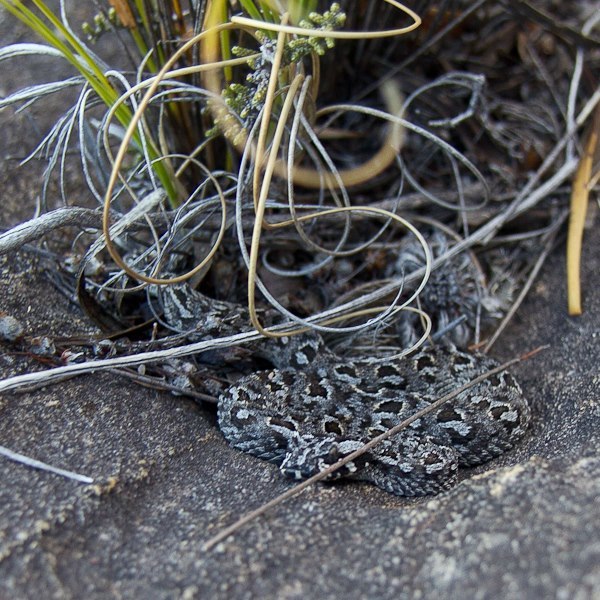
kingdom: Animalia
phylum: Chordata
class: Squamata
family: Viperidae
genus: Bitis
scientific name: Bitis rubida
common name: Red adder
